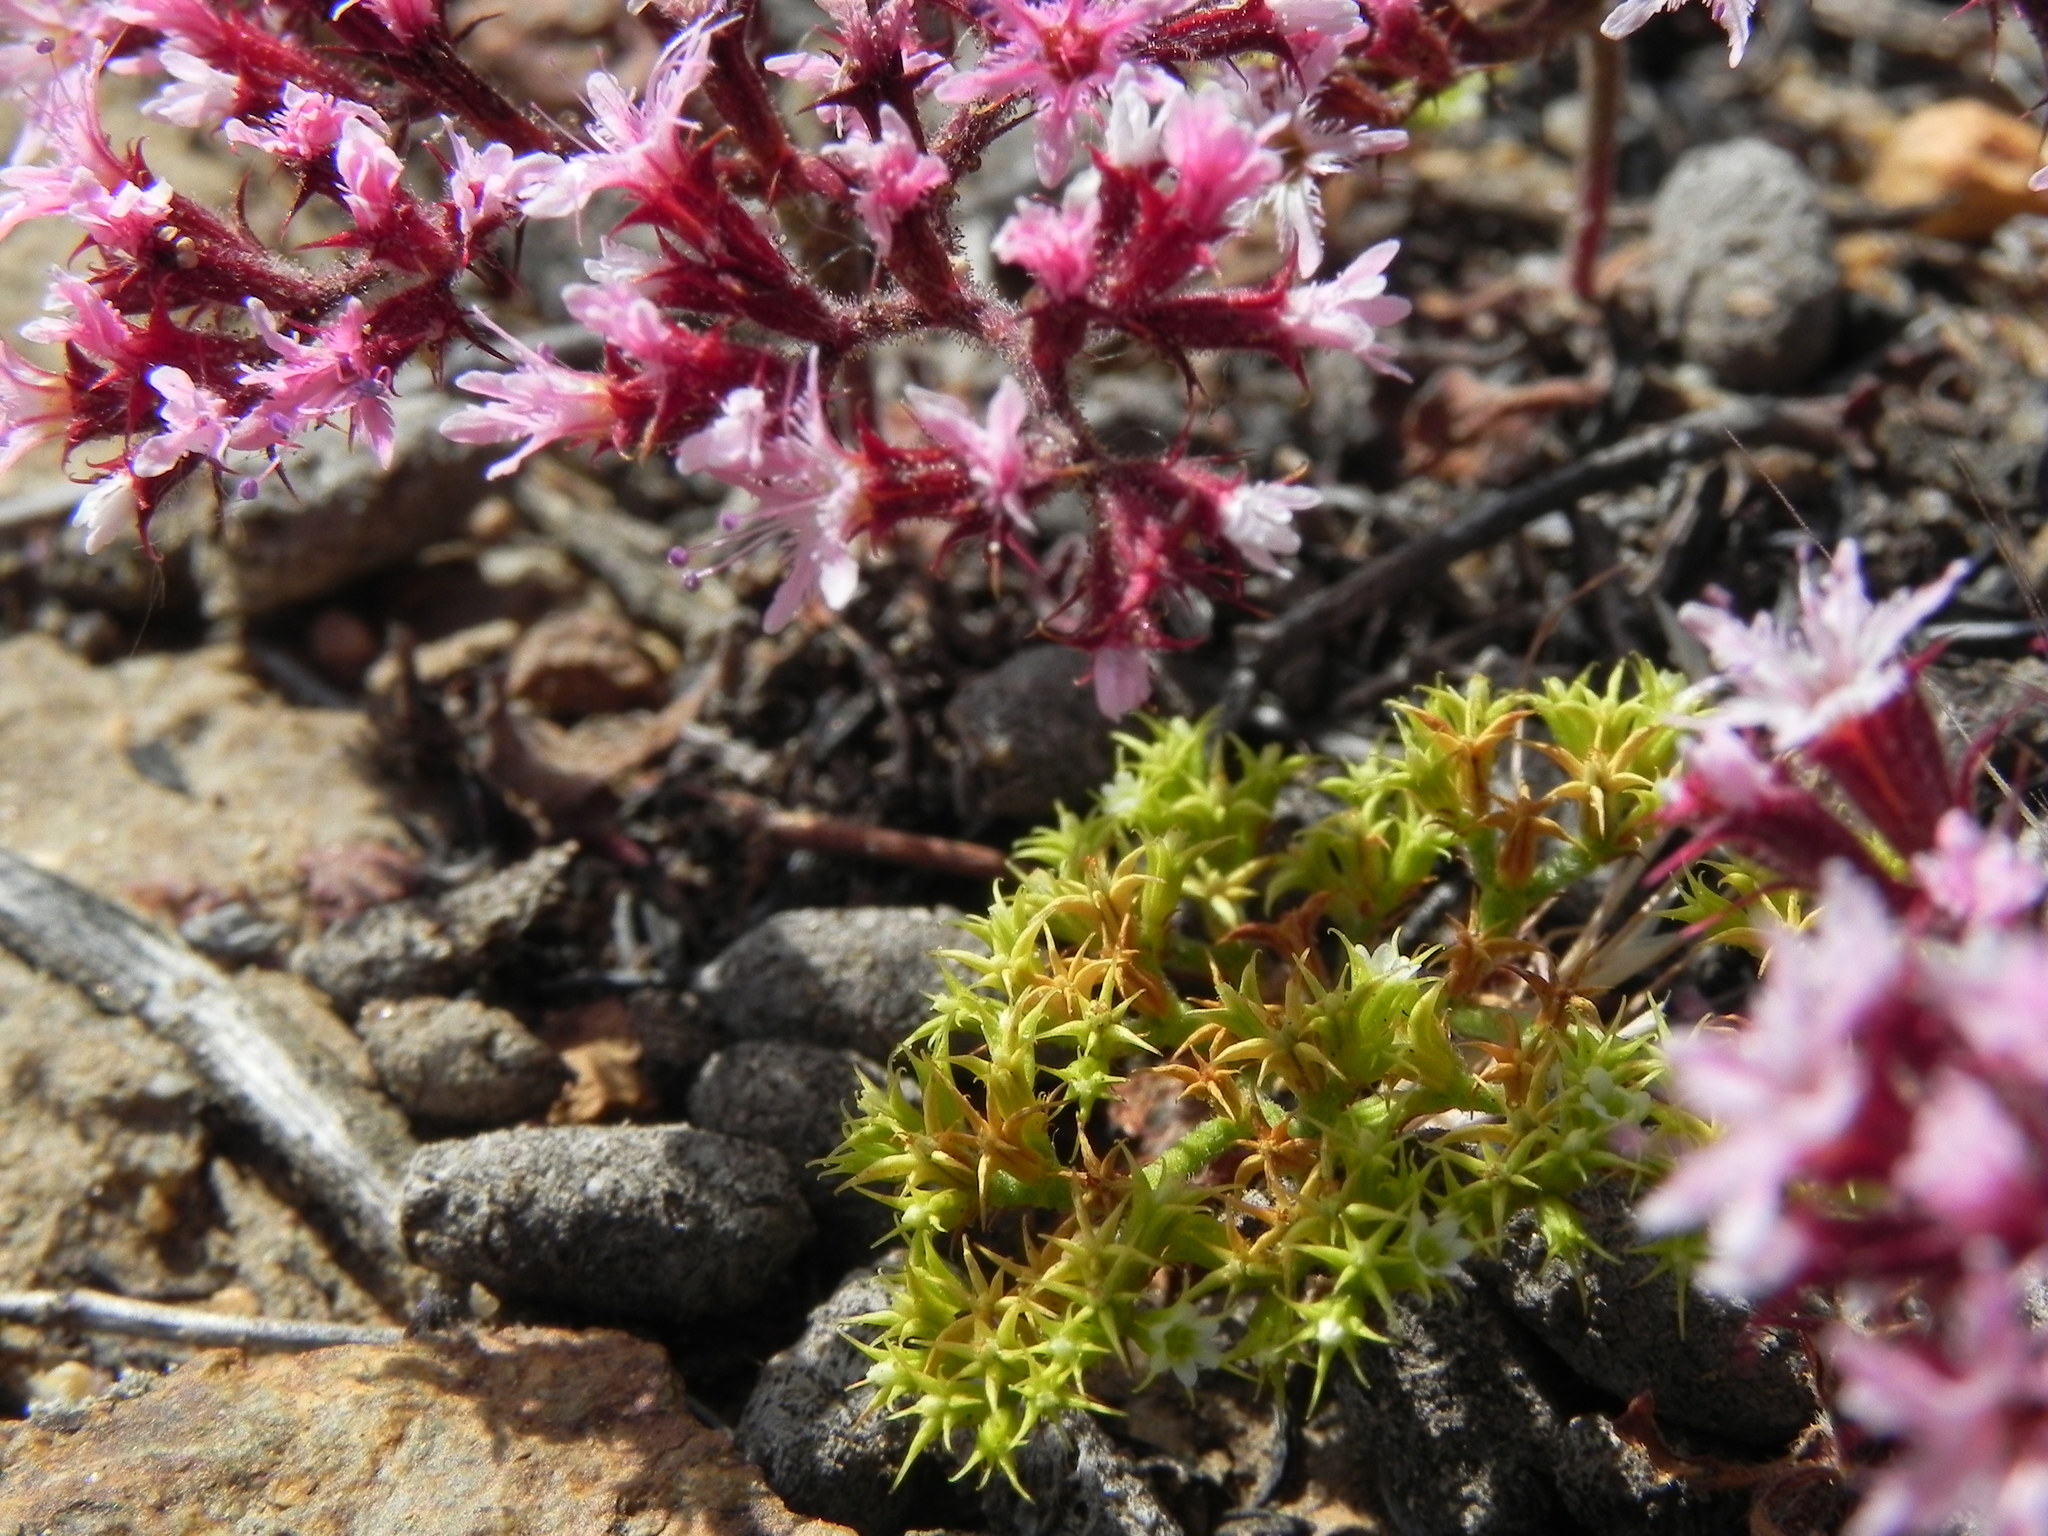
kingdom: Plantae
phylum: Tracheophyta
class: Magnoliopsida
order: Caryophyllales
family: Polygonaceae
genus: Chorizanthe
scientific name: Chorizanthe procumbens
